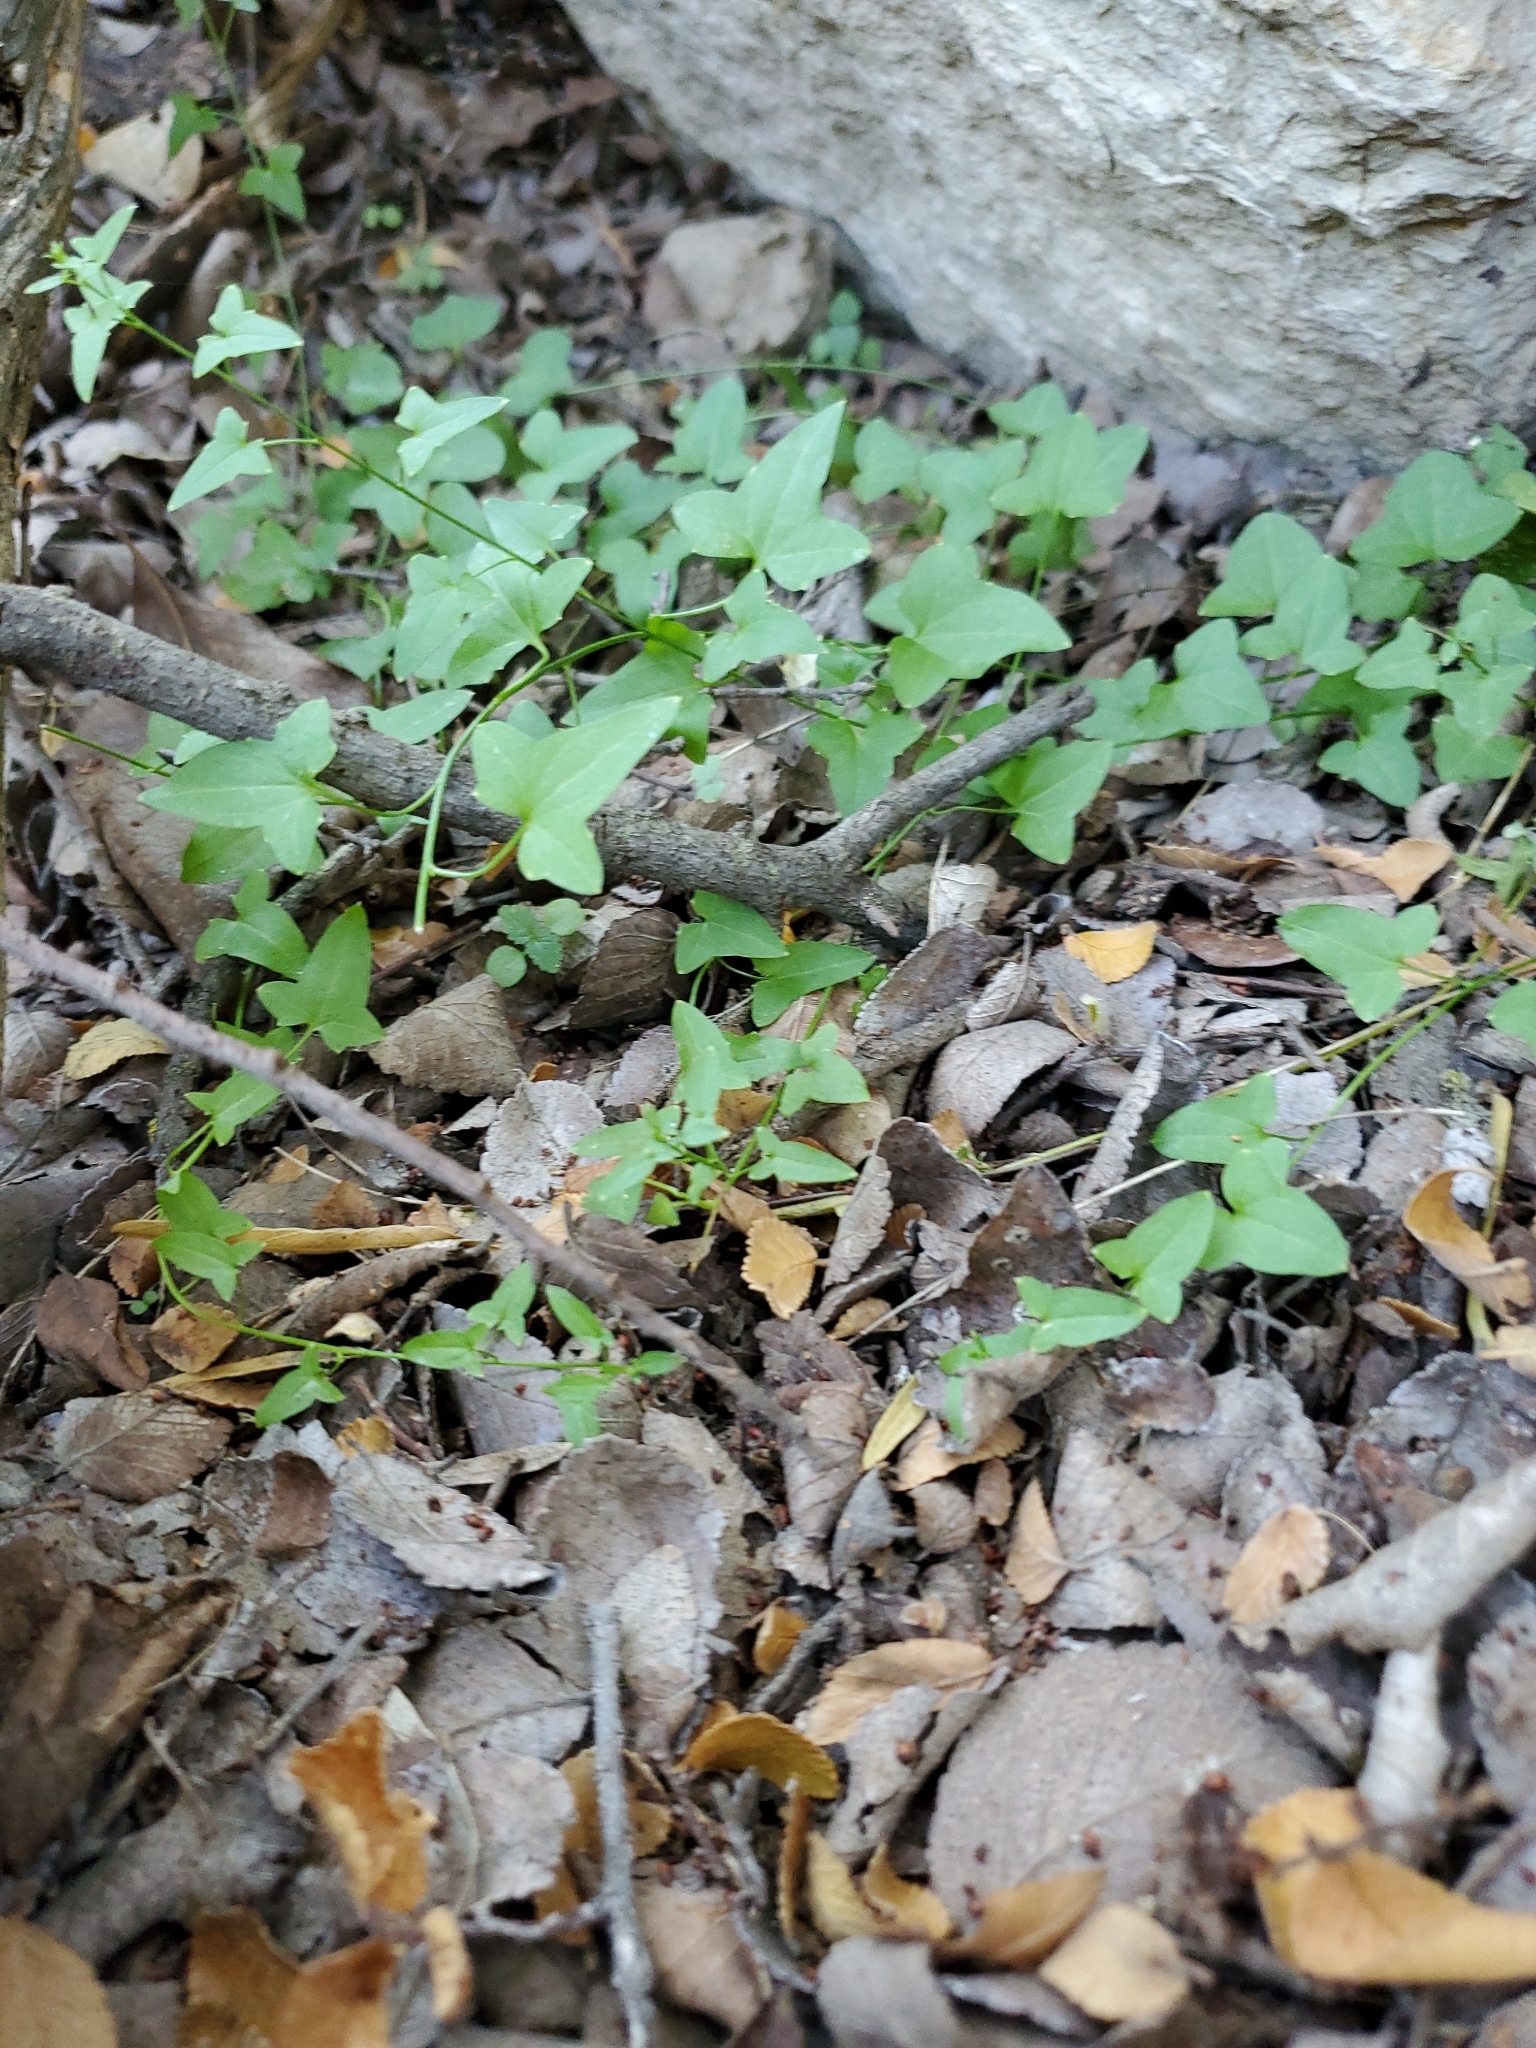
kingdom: Plantae
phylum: Tracheophyta
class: Magnoliopsida
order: Lamiales
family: Plantaginaceae
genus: Maurandella
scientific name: Maurandella antirrhiniflora
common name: Violet twining-snapdragon
